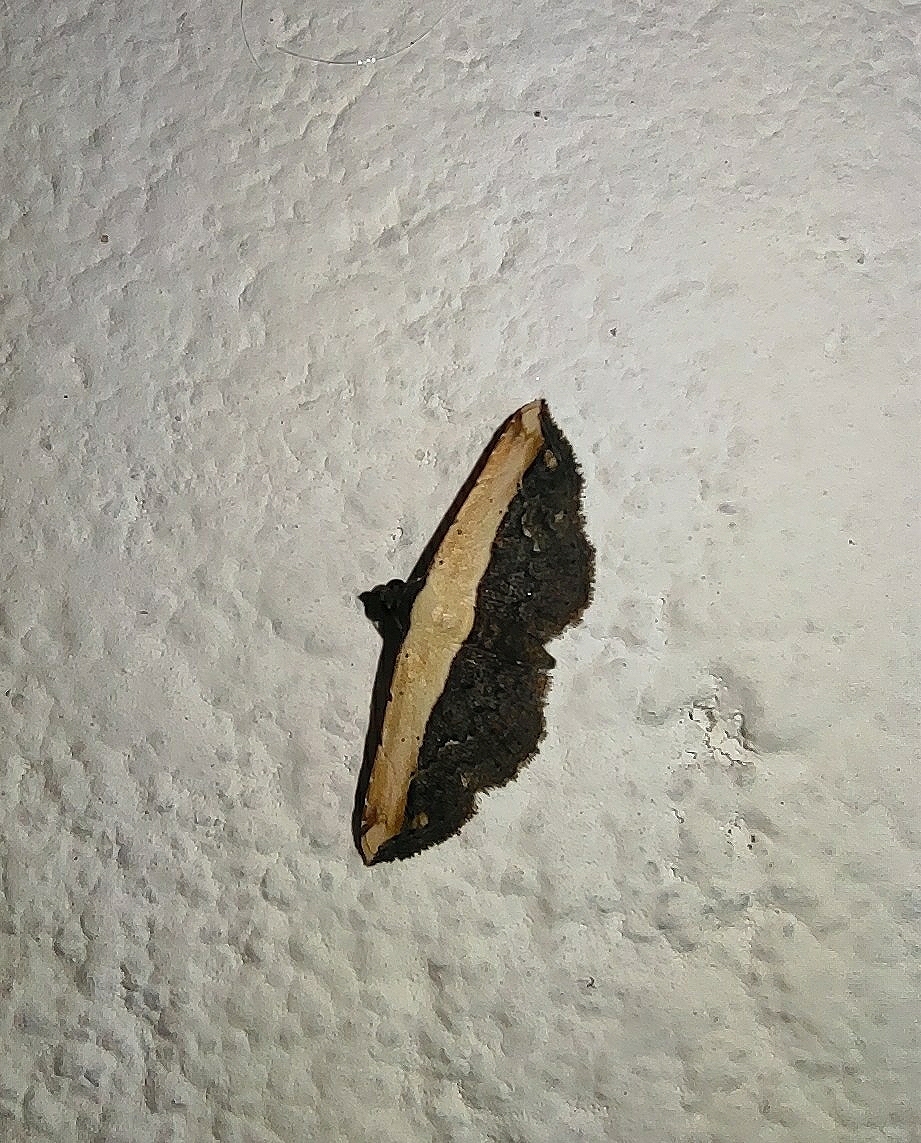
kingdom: Animalia
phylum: Arthropoda
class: Insecta
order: Lepidoptera
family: Noctuidae
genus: Ataboruza
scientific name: Ataboruza divisa
